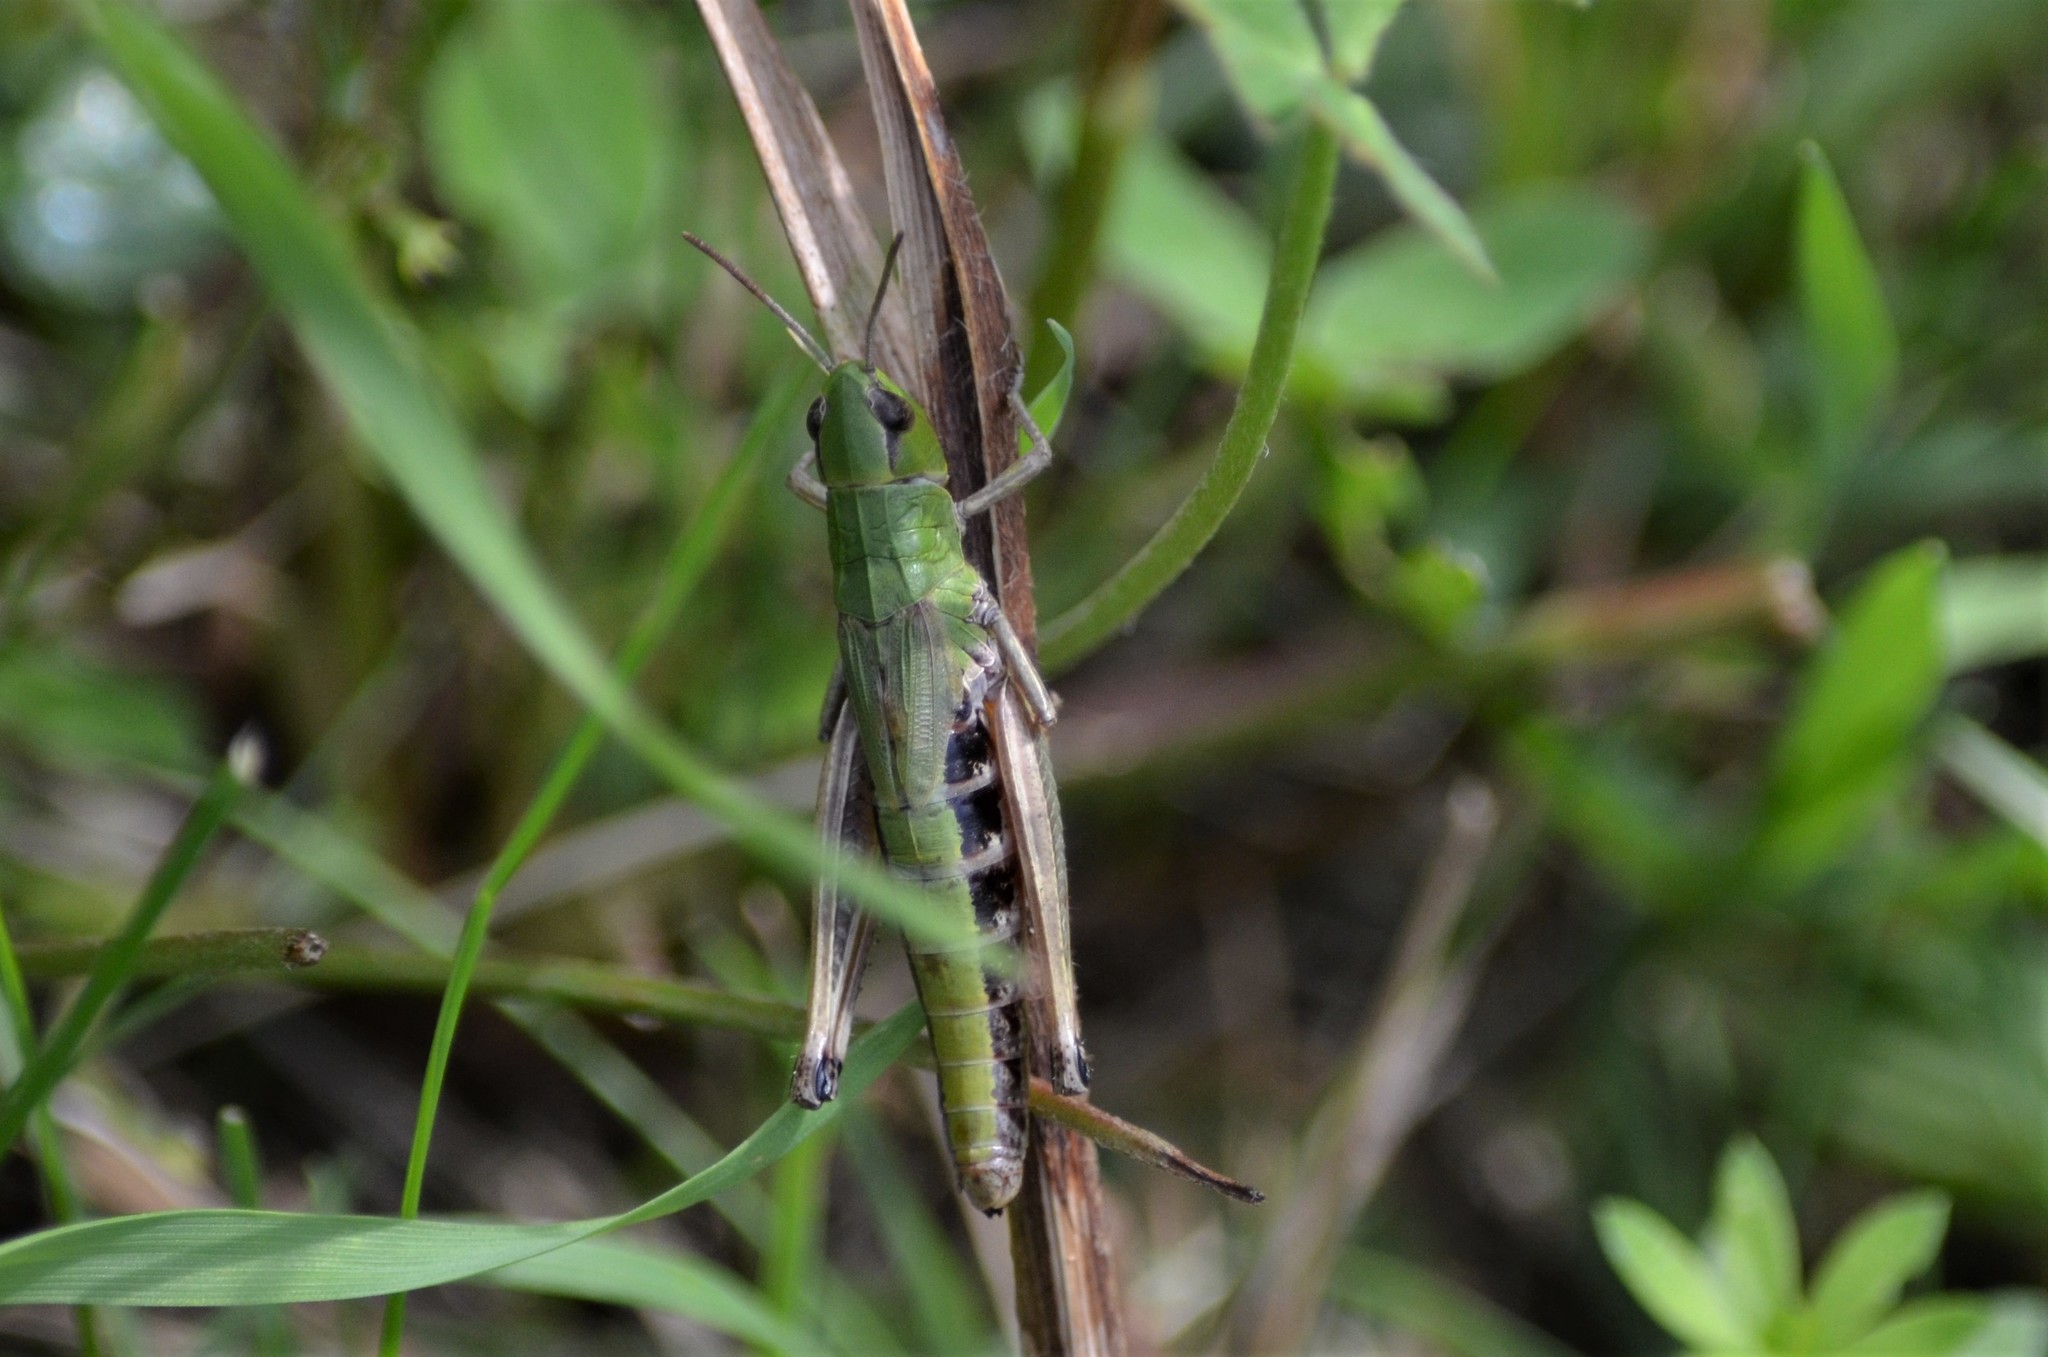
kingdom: Animalia
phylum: Arthropoda
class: Insecta
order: Orthoptera
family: Acrididae
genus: Pseudochorthippus
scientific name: Pseudochorthippus parallelus
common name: Meadow grasshopper
